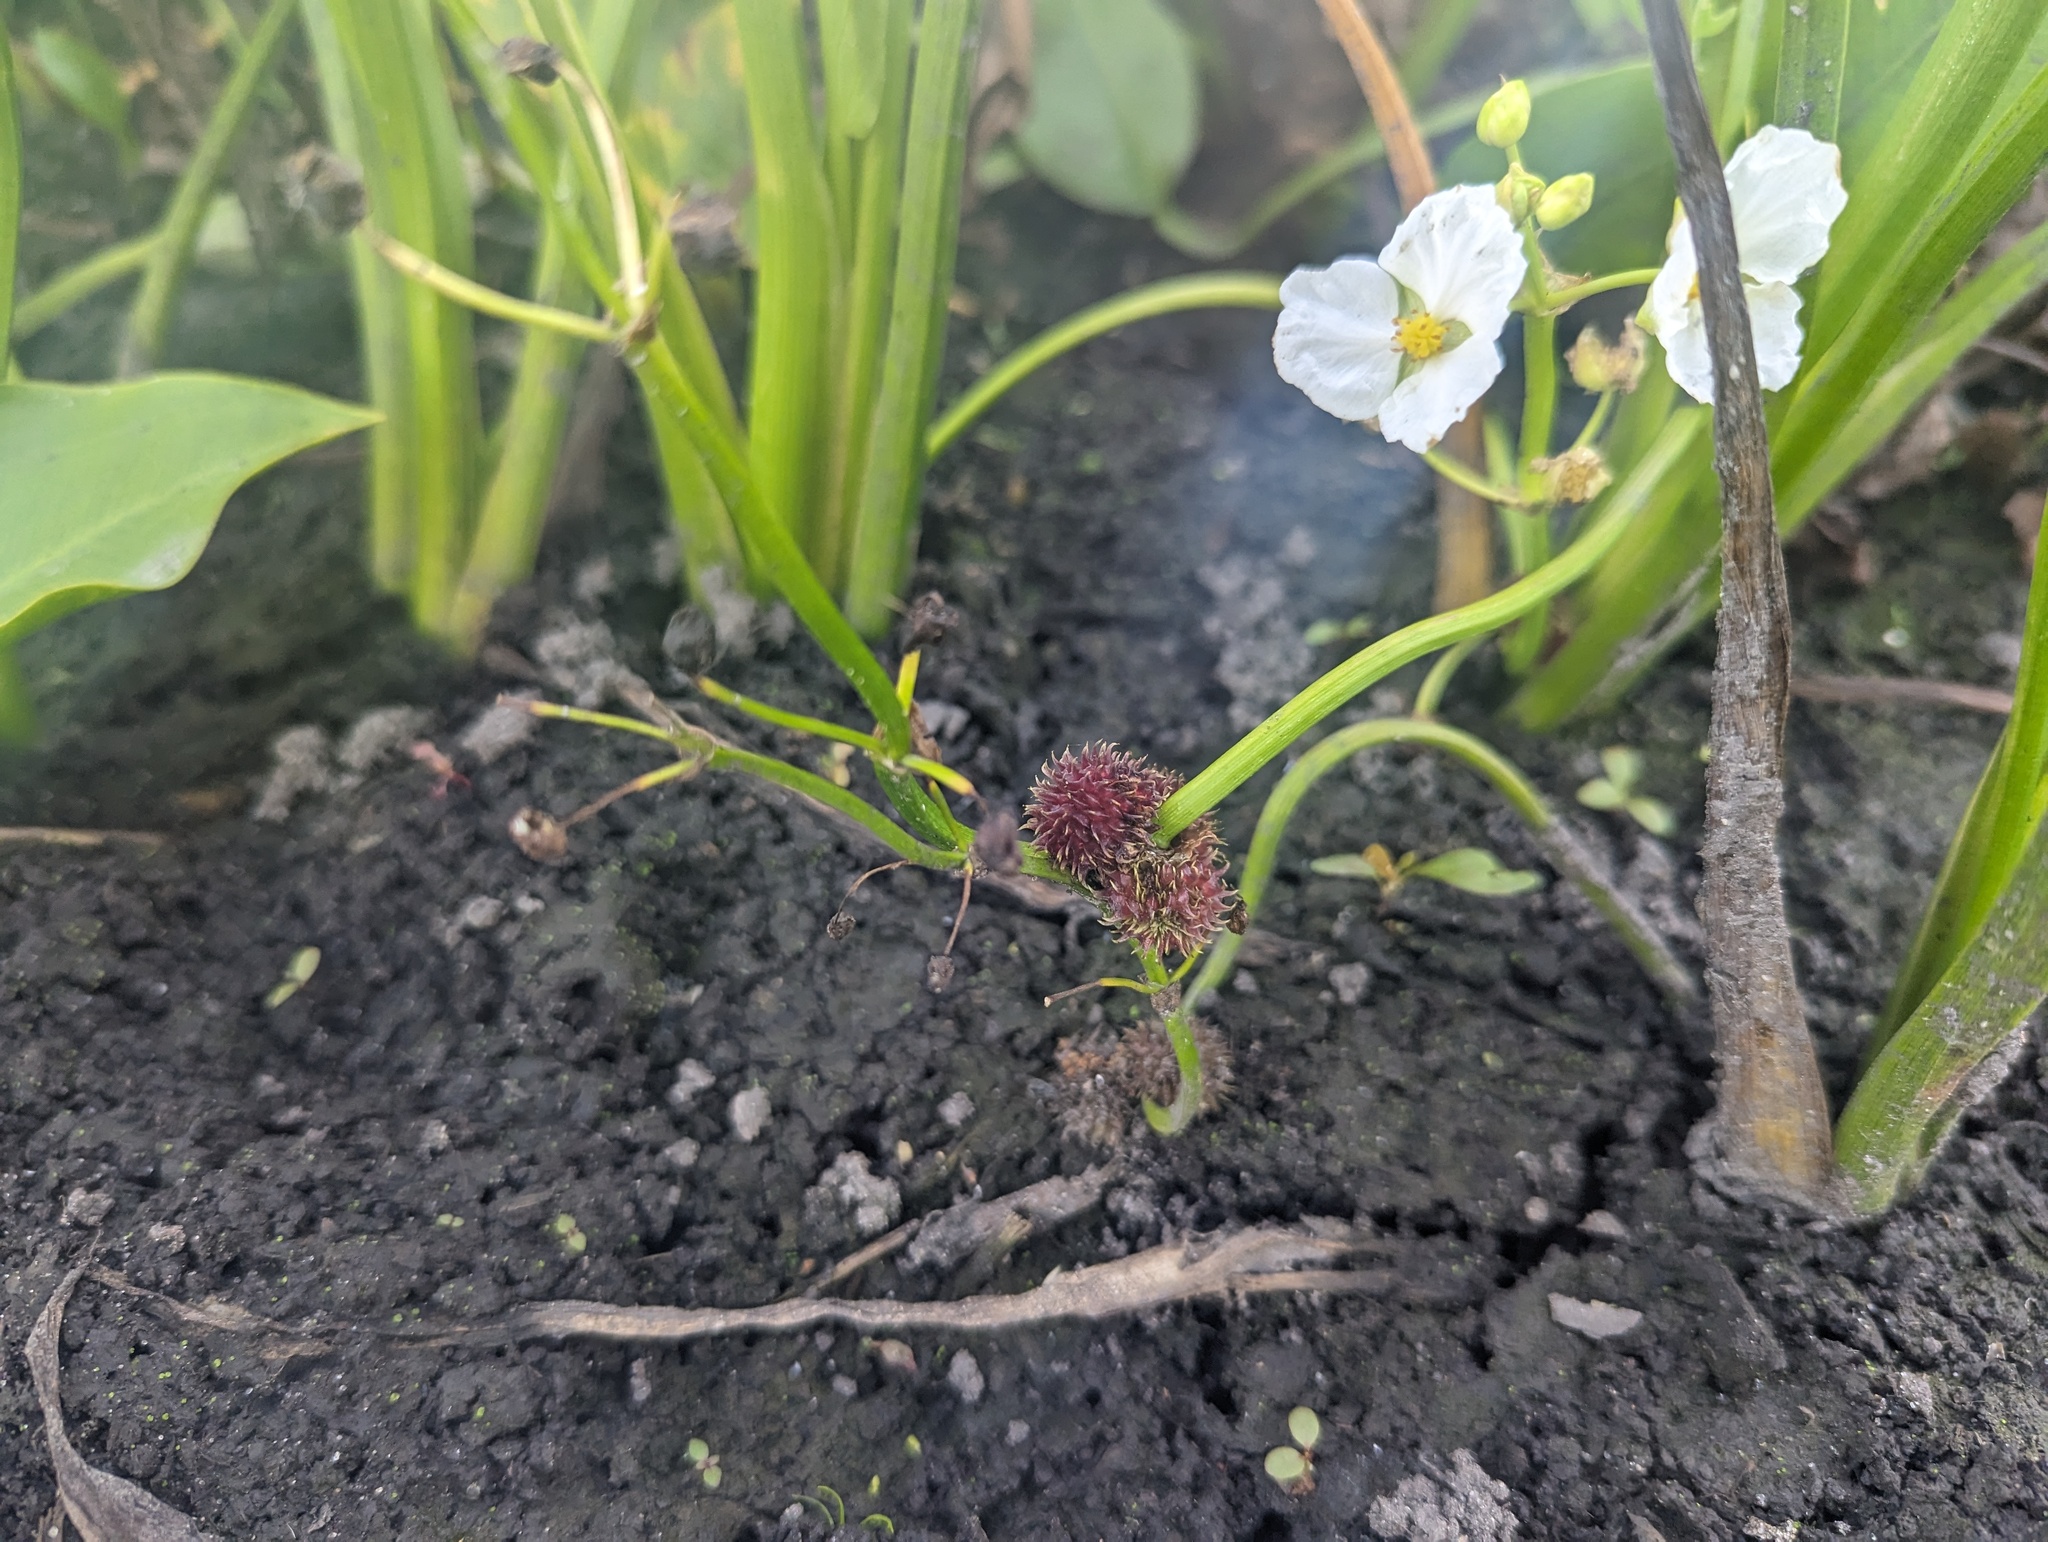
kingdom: Plantae
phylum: Tracheophyta
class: Liliopsida
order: Alismatales
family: Alismataceae
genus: Sagittaria
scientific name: Sagittaria rigida
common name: Canadian arrowhead
